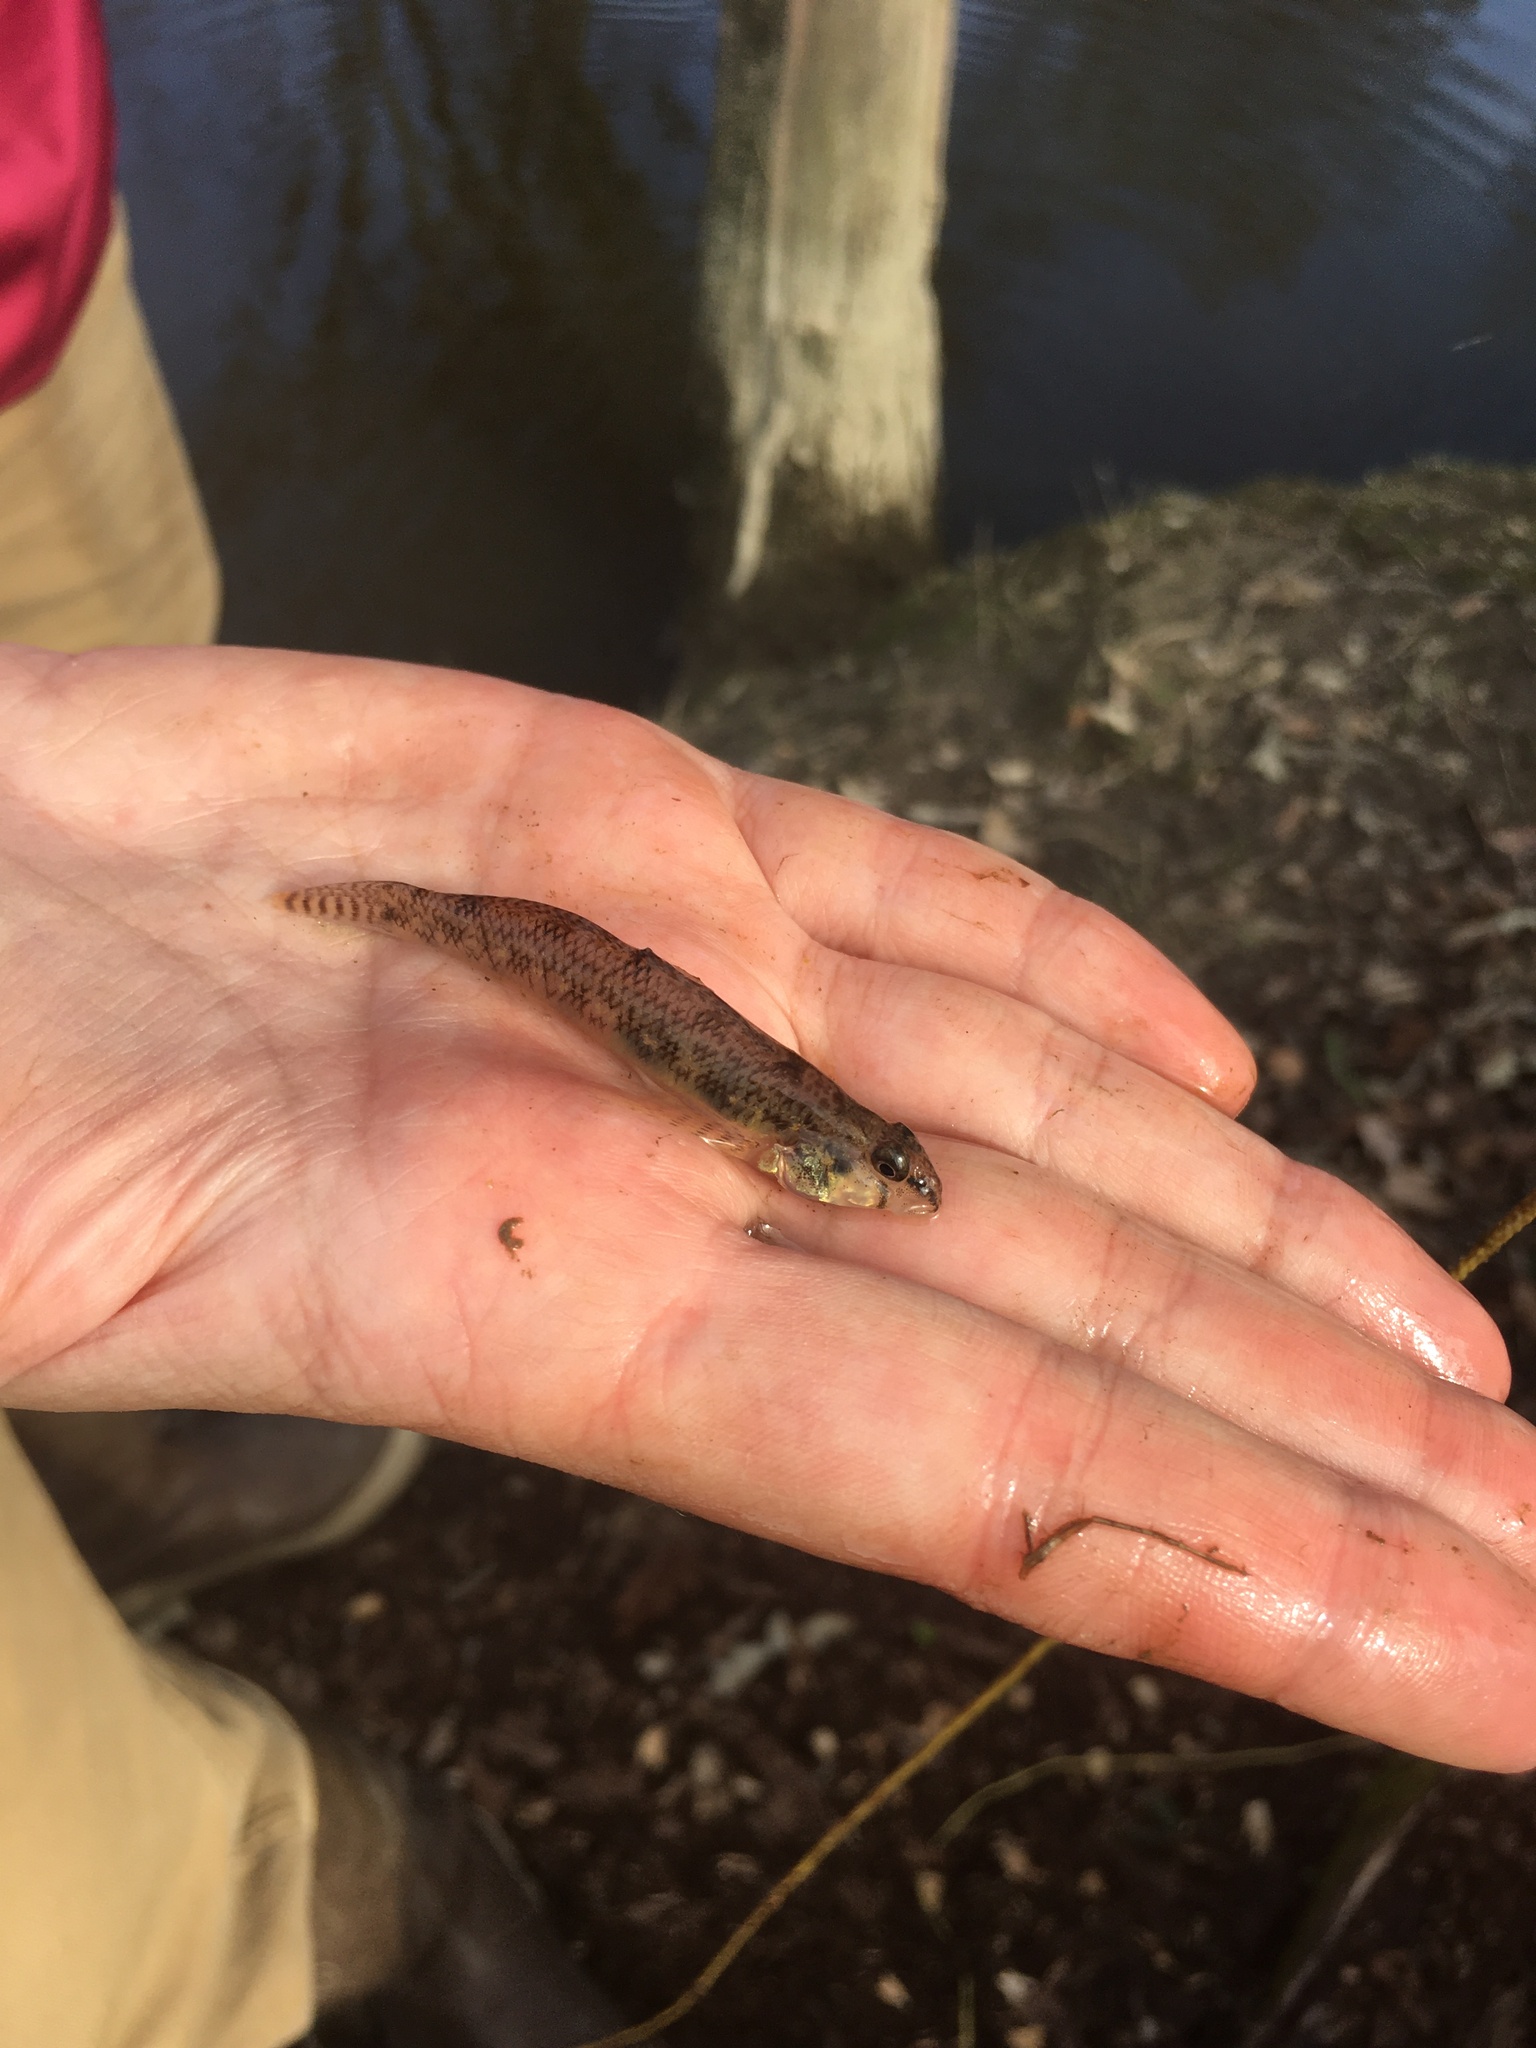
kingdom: Animalia
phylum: Chordata
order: Perciformes
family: Percidae
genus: Etheostoma
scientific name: Etheostoma olmstedi
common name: Tessellated darter
